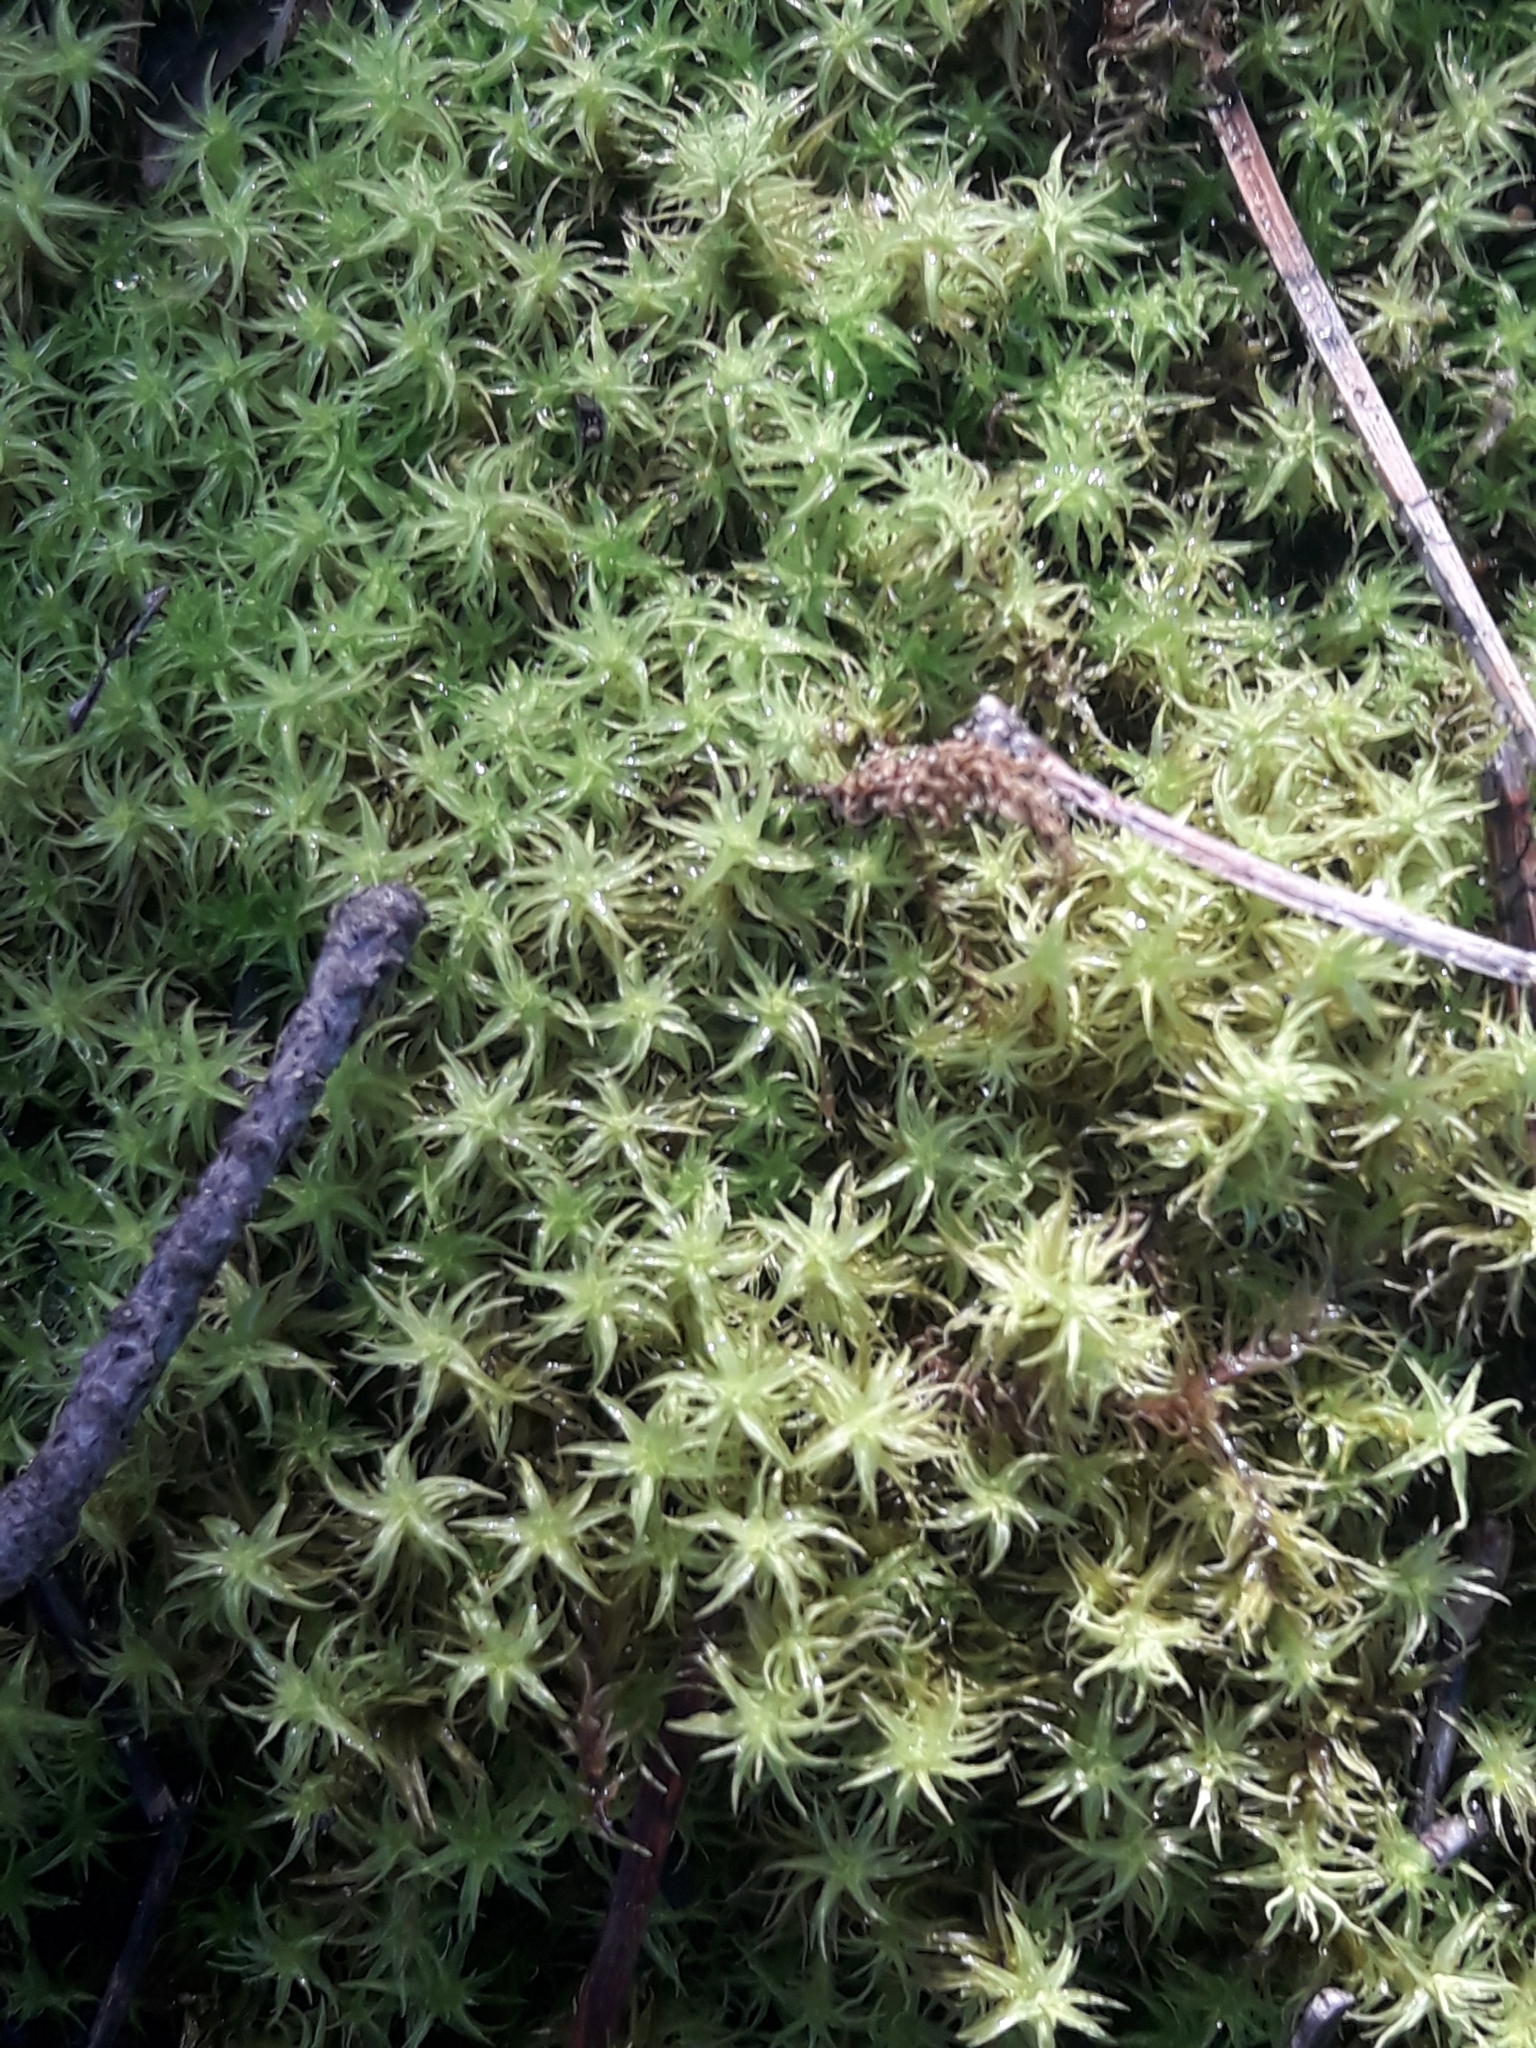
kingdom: Plantae
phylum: Bryophyta
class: Bryopsida
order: Pottiales
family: Pottiaceae
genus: Pleurochaete
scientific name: Pleurochaete squarrosa
